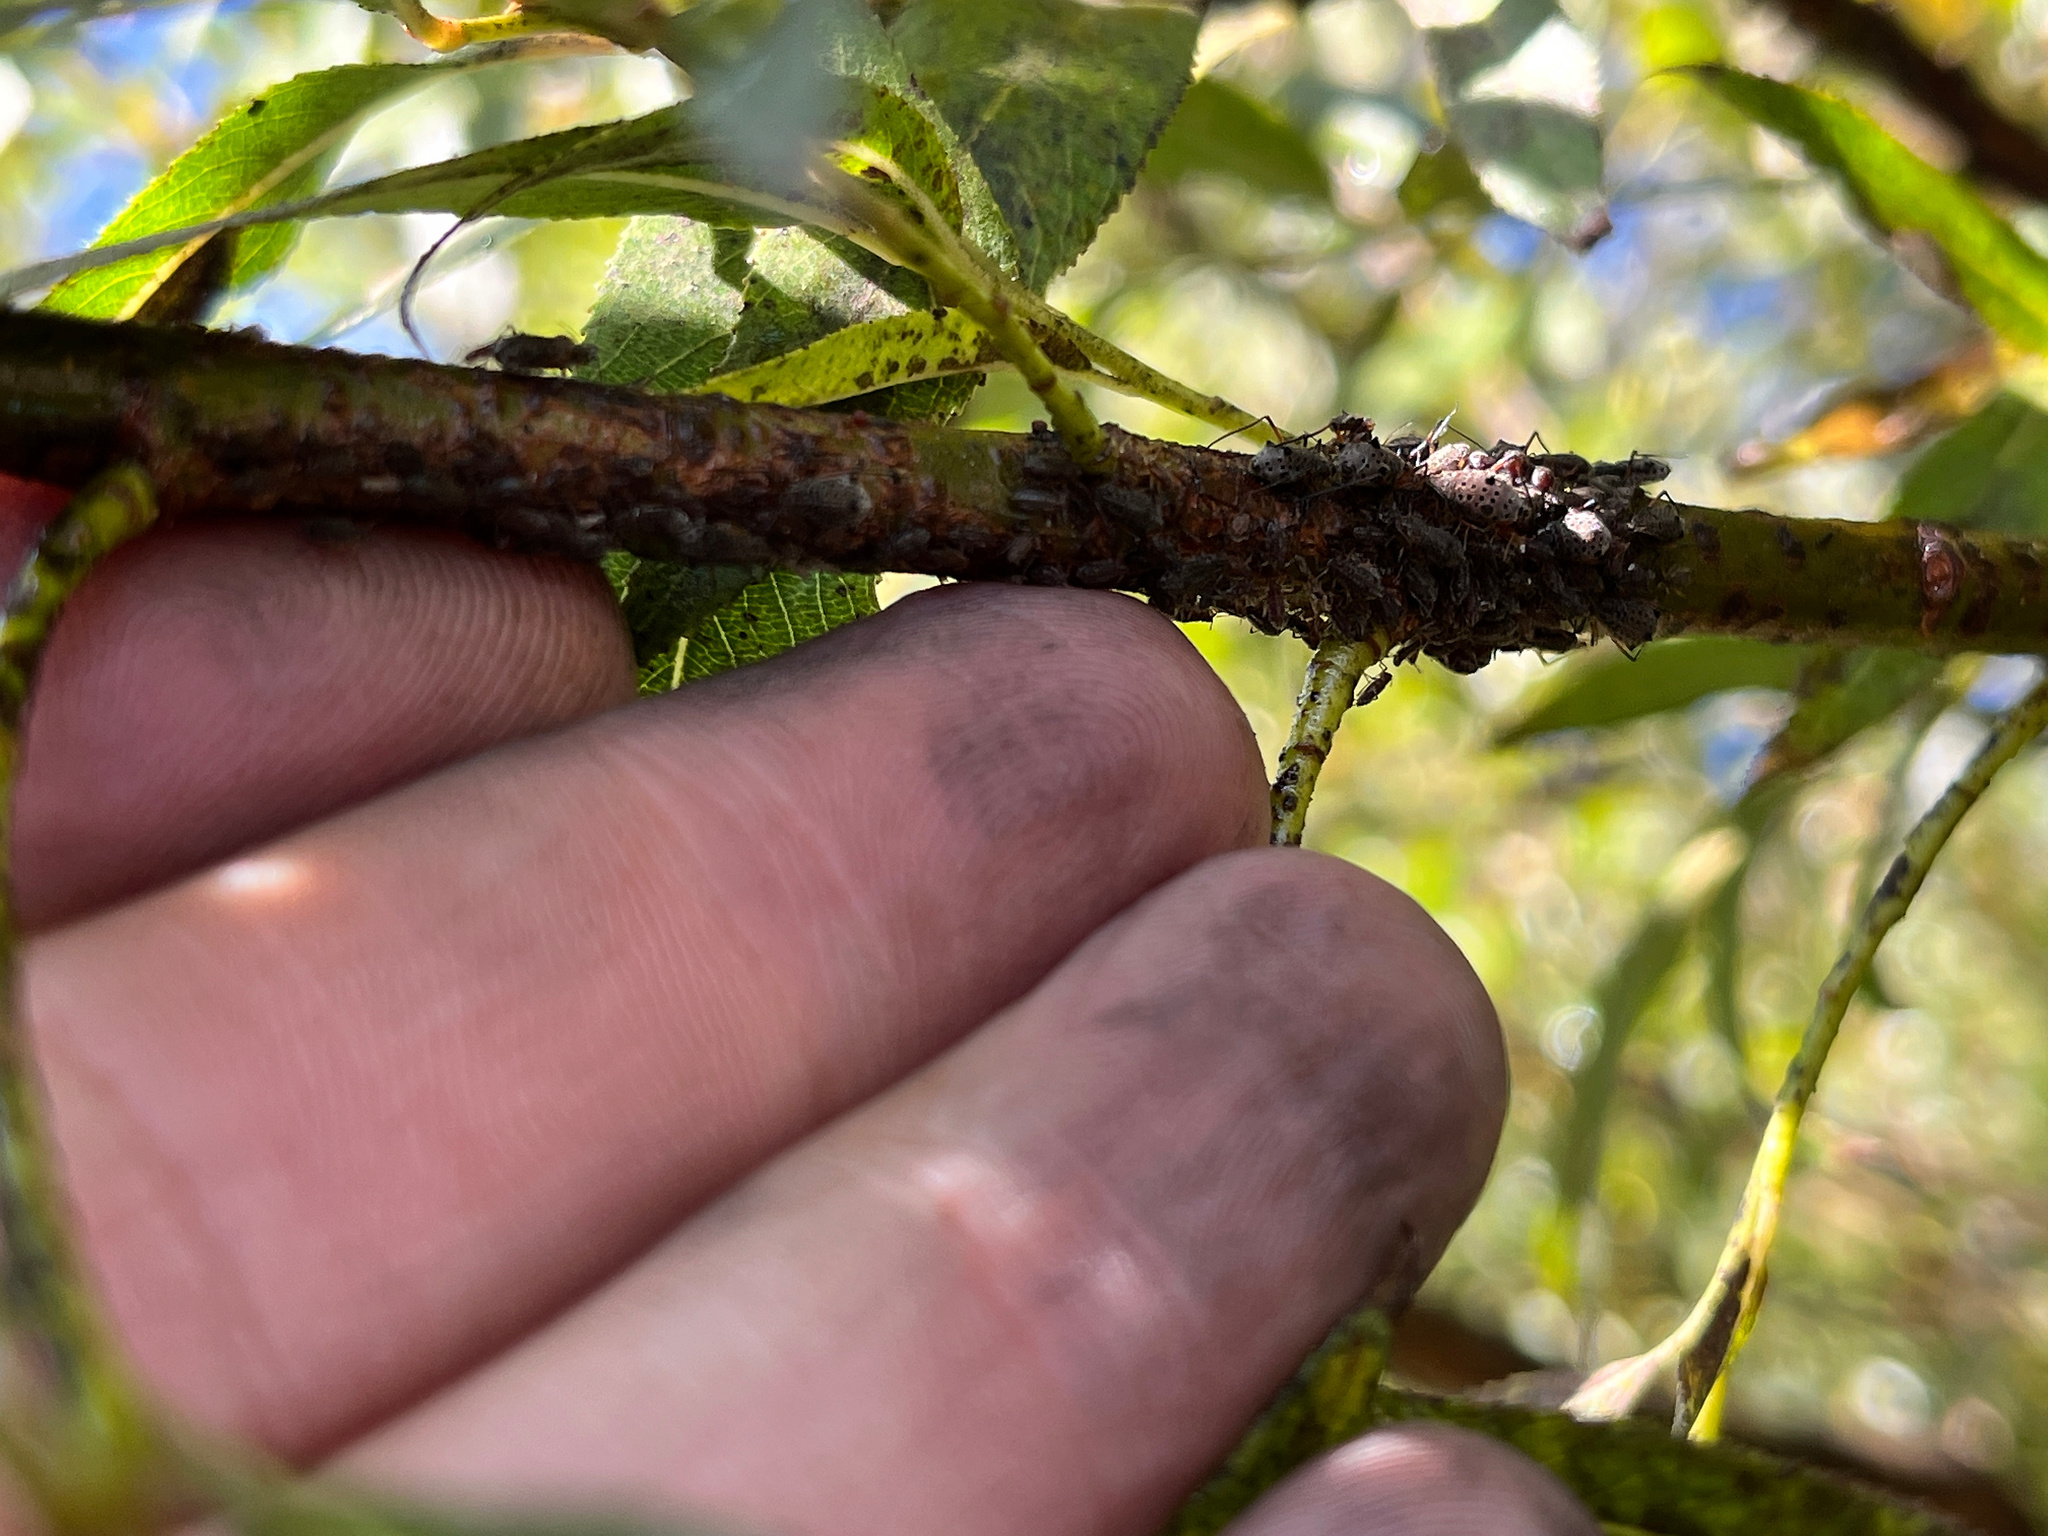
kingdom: Animalia
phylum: Arthropoda
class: Insecta
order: Hemiptera
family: Aphididae
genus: Tuberolachnus
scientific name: Tuberolachnus salignus
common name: Giant willow aphid
